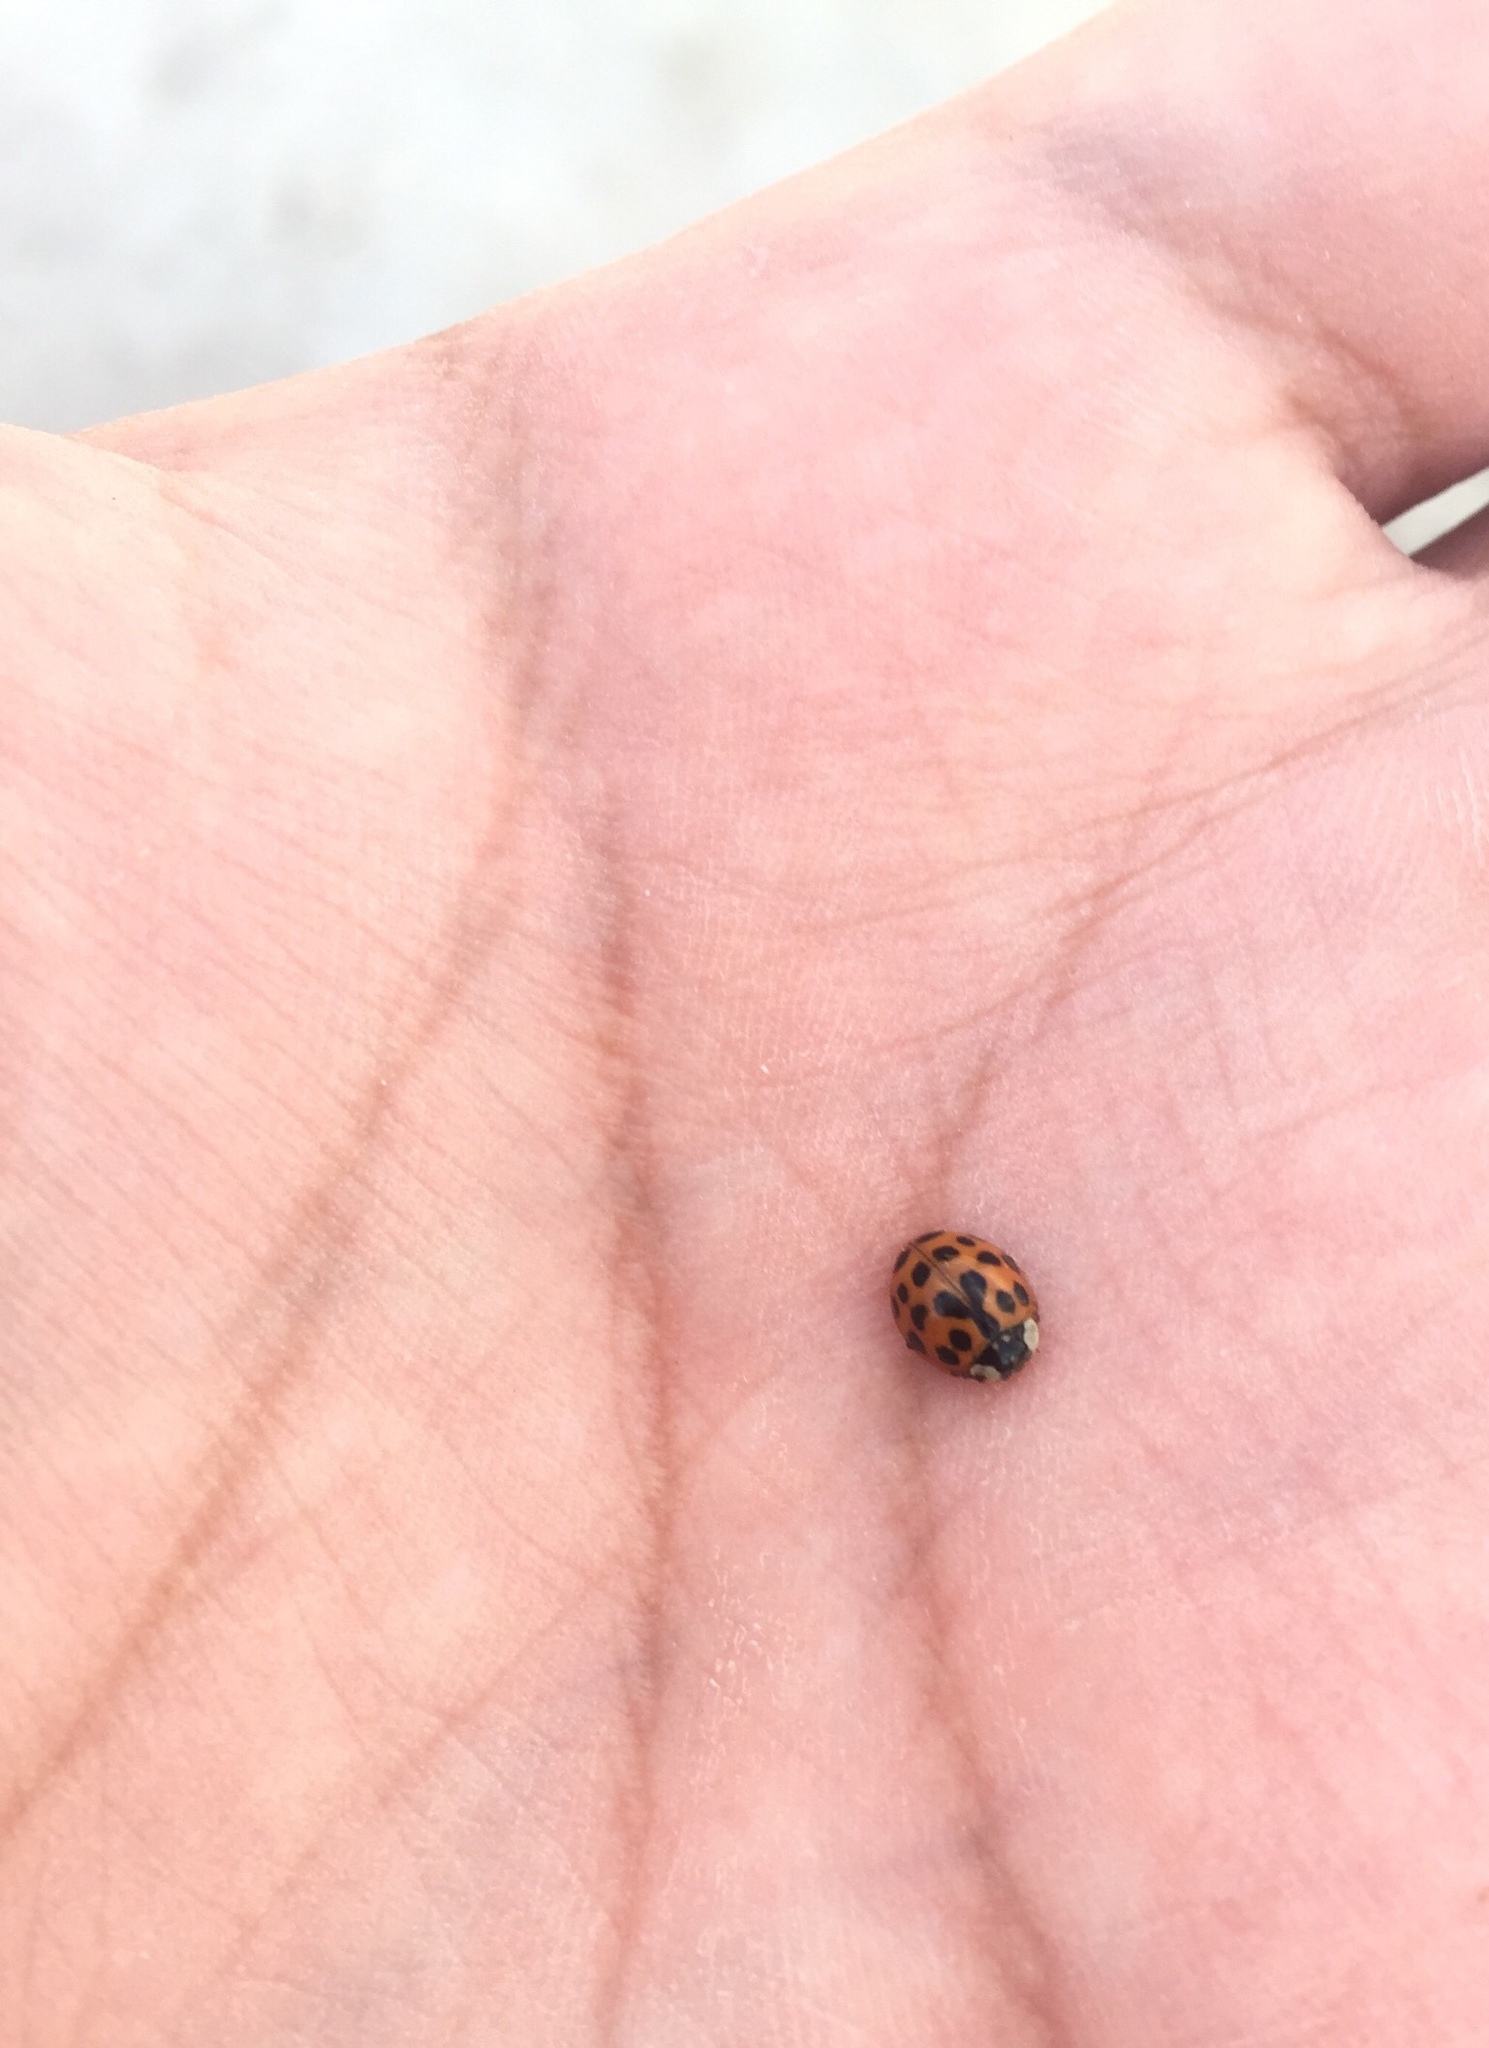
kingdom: Animalia
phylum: Arthropoda
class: Insecta
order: Coleoptera
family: Coccinellidae
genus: Harmonia
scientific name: Harmonia axyridis
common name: Harlequin ladybird
